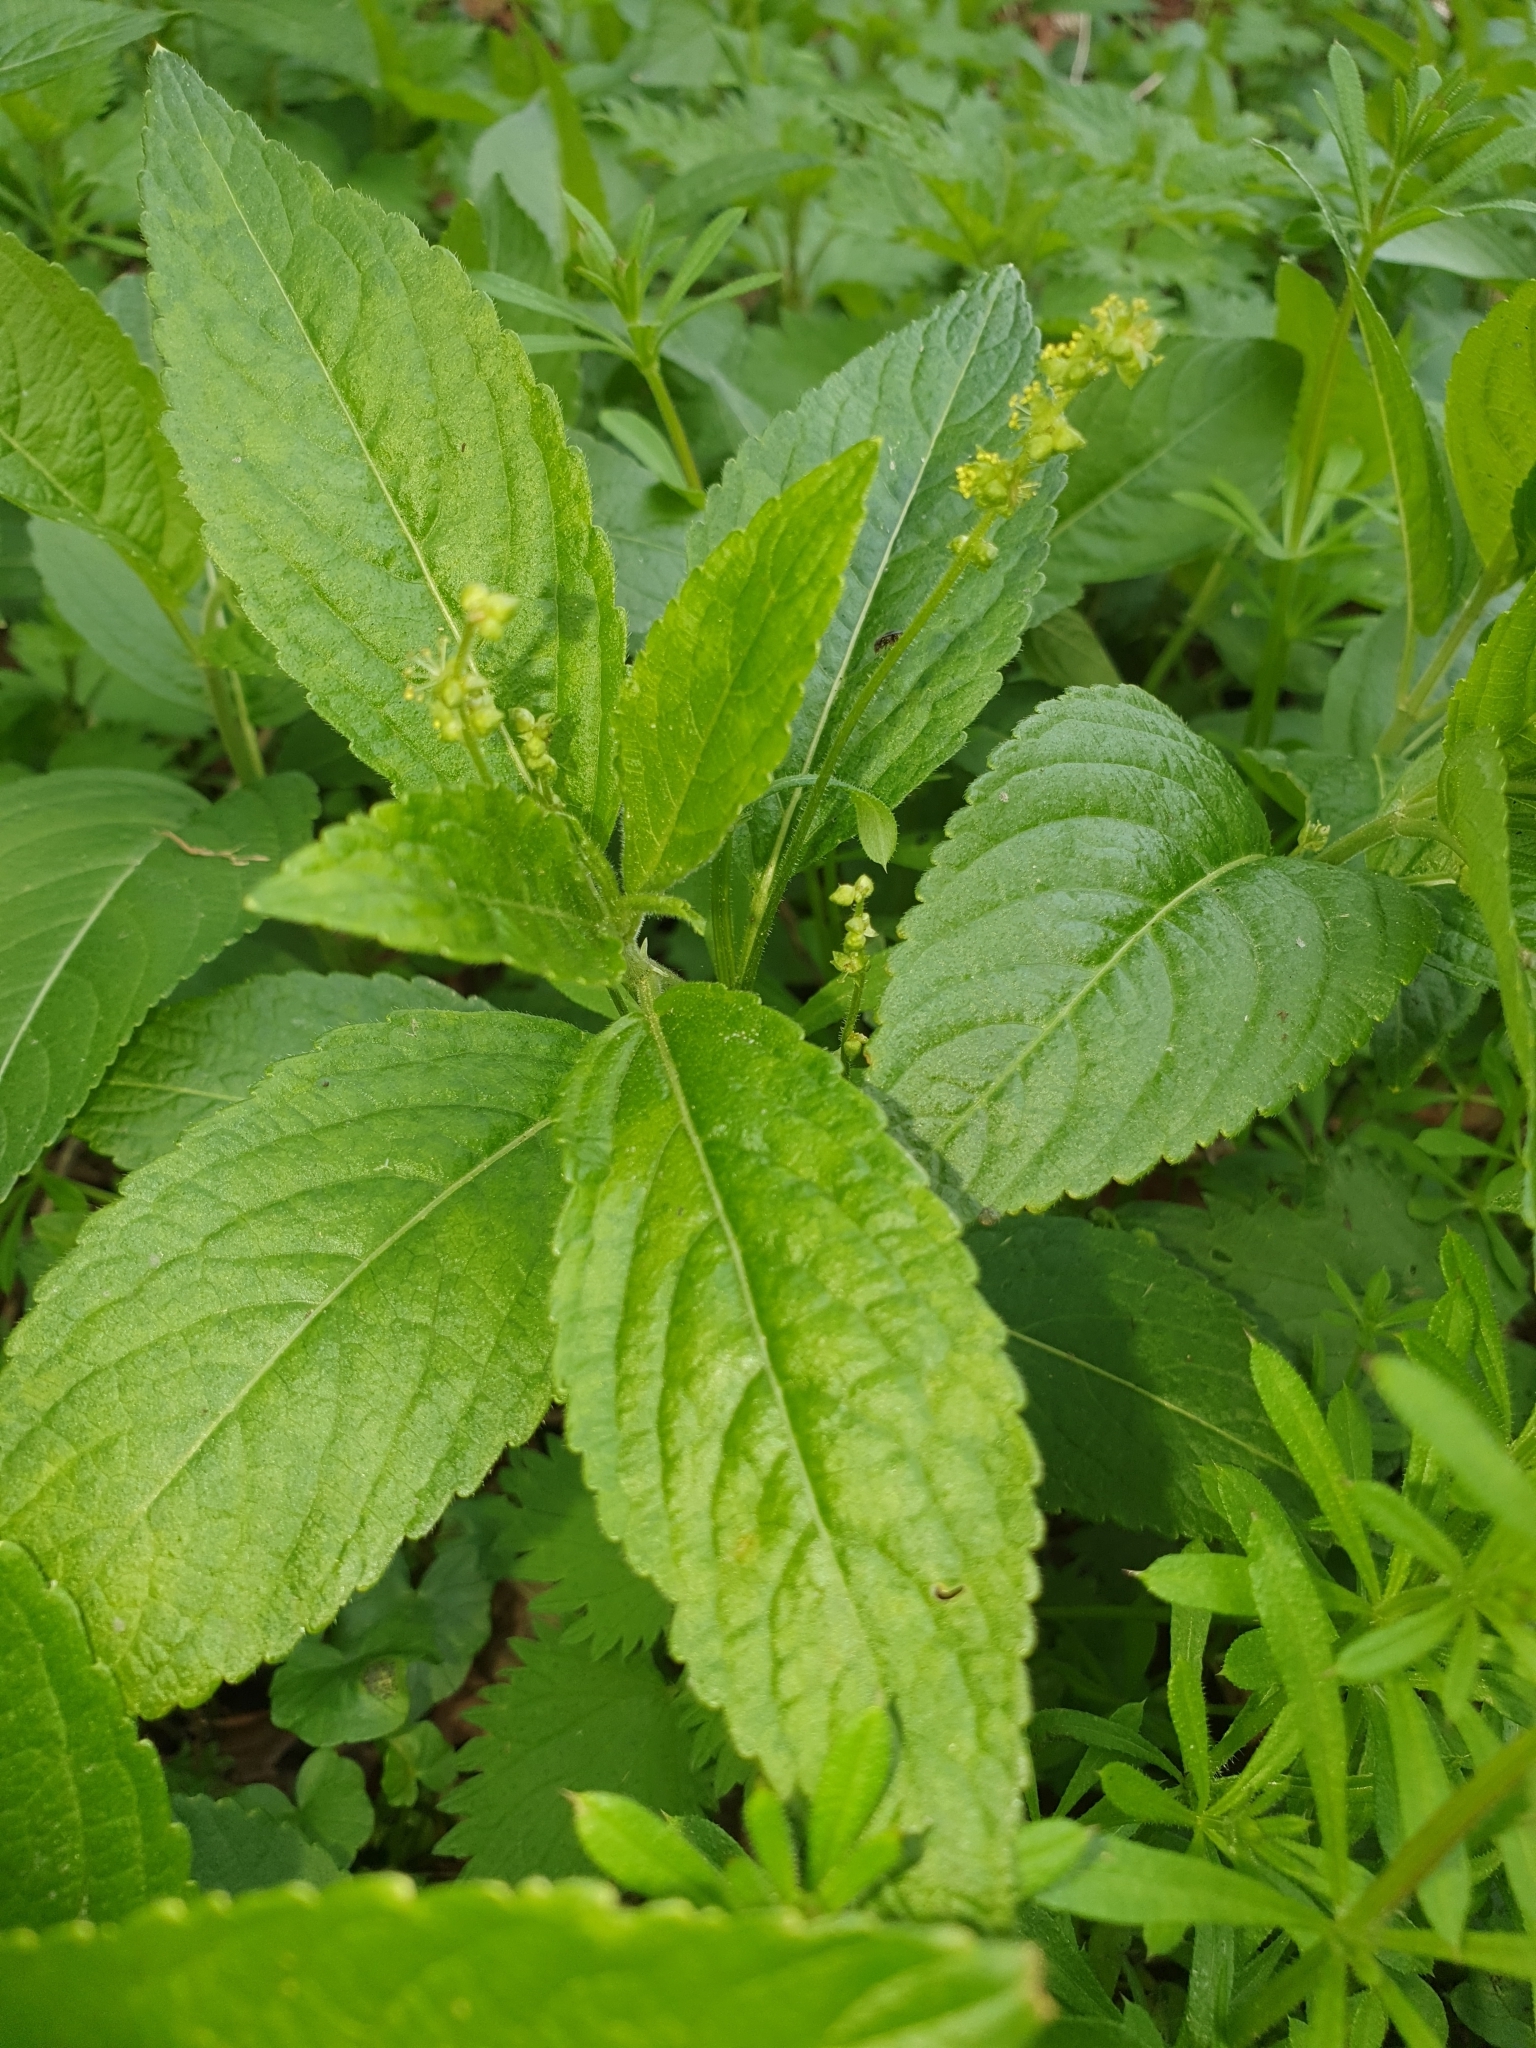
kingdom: Plantae
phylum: Tracheophyta
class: Magnoliopsida
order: Malpighiales
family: Euphorbiaceae
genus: Mercurialis
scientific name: Mercurialis perennis
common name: Dog mercury
